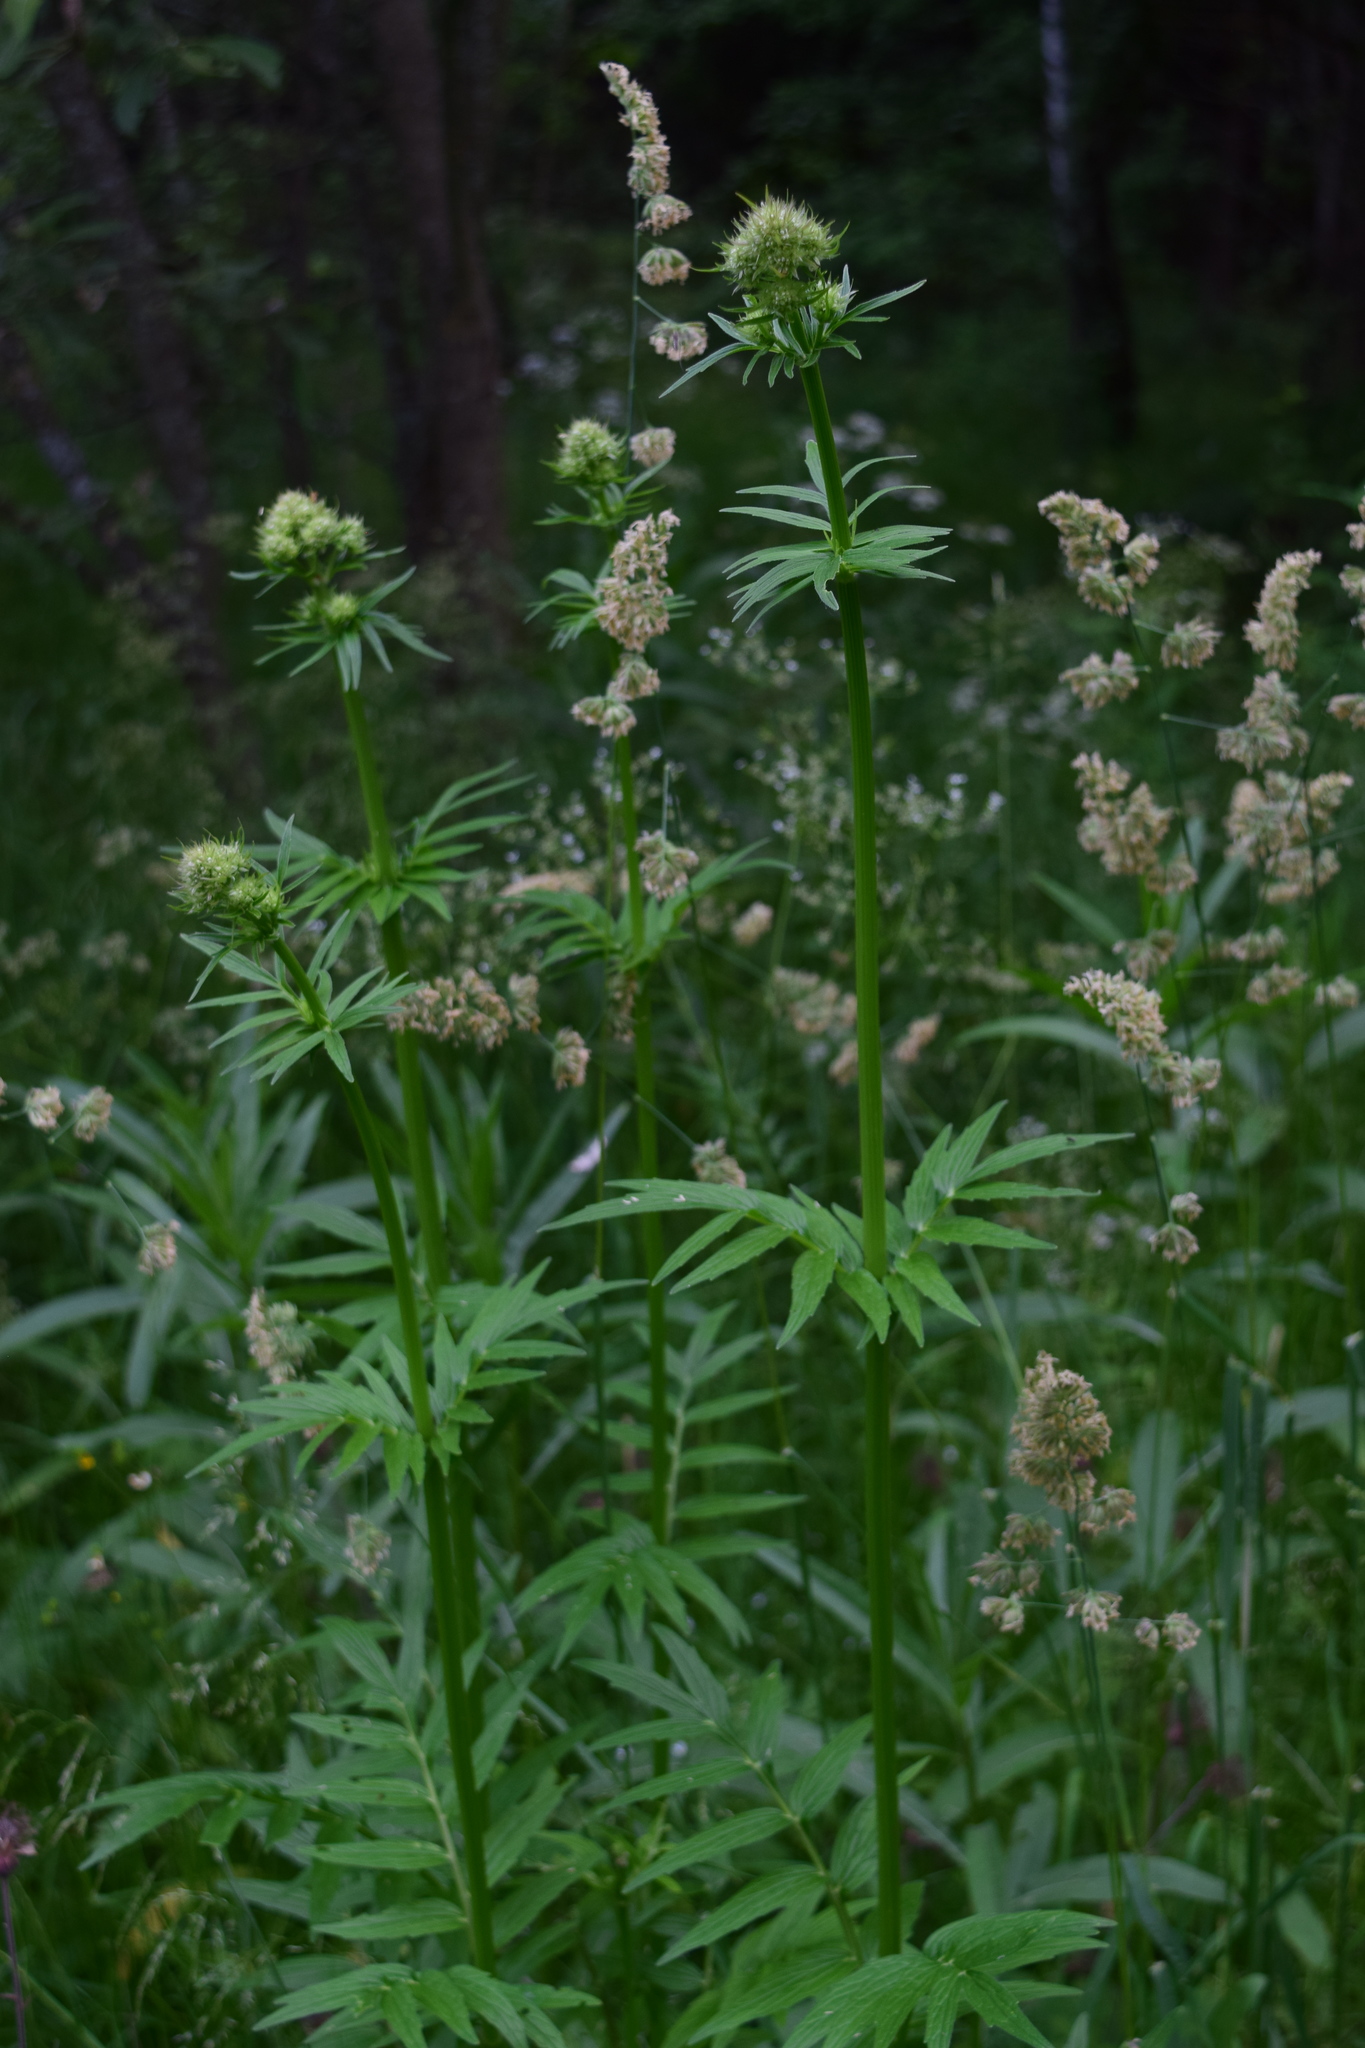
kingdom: Plantae
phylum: Tracheophyta
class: Magnoliopsida
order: Dipsacales
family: Caprifoliaceae
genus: Valeriana
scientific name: Valeriana officinalis
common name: Common valerian
